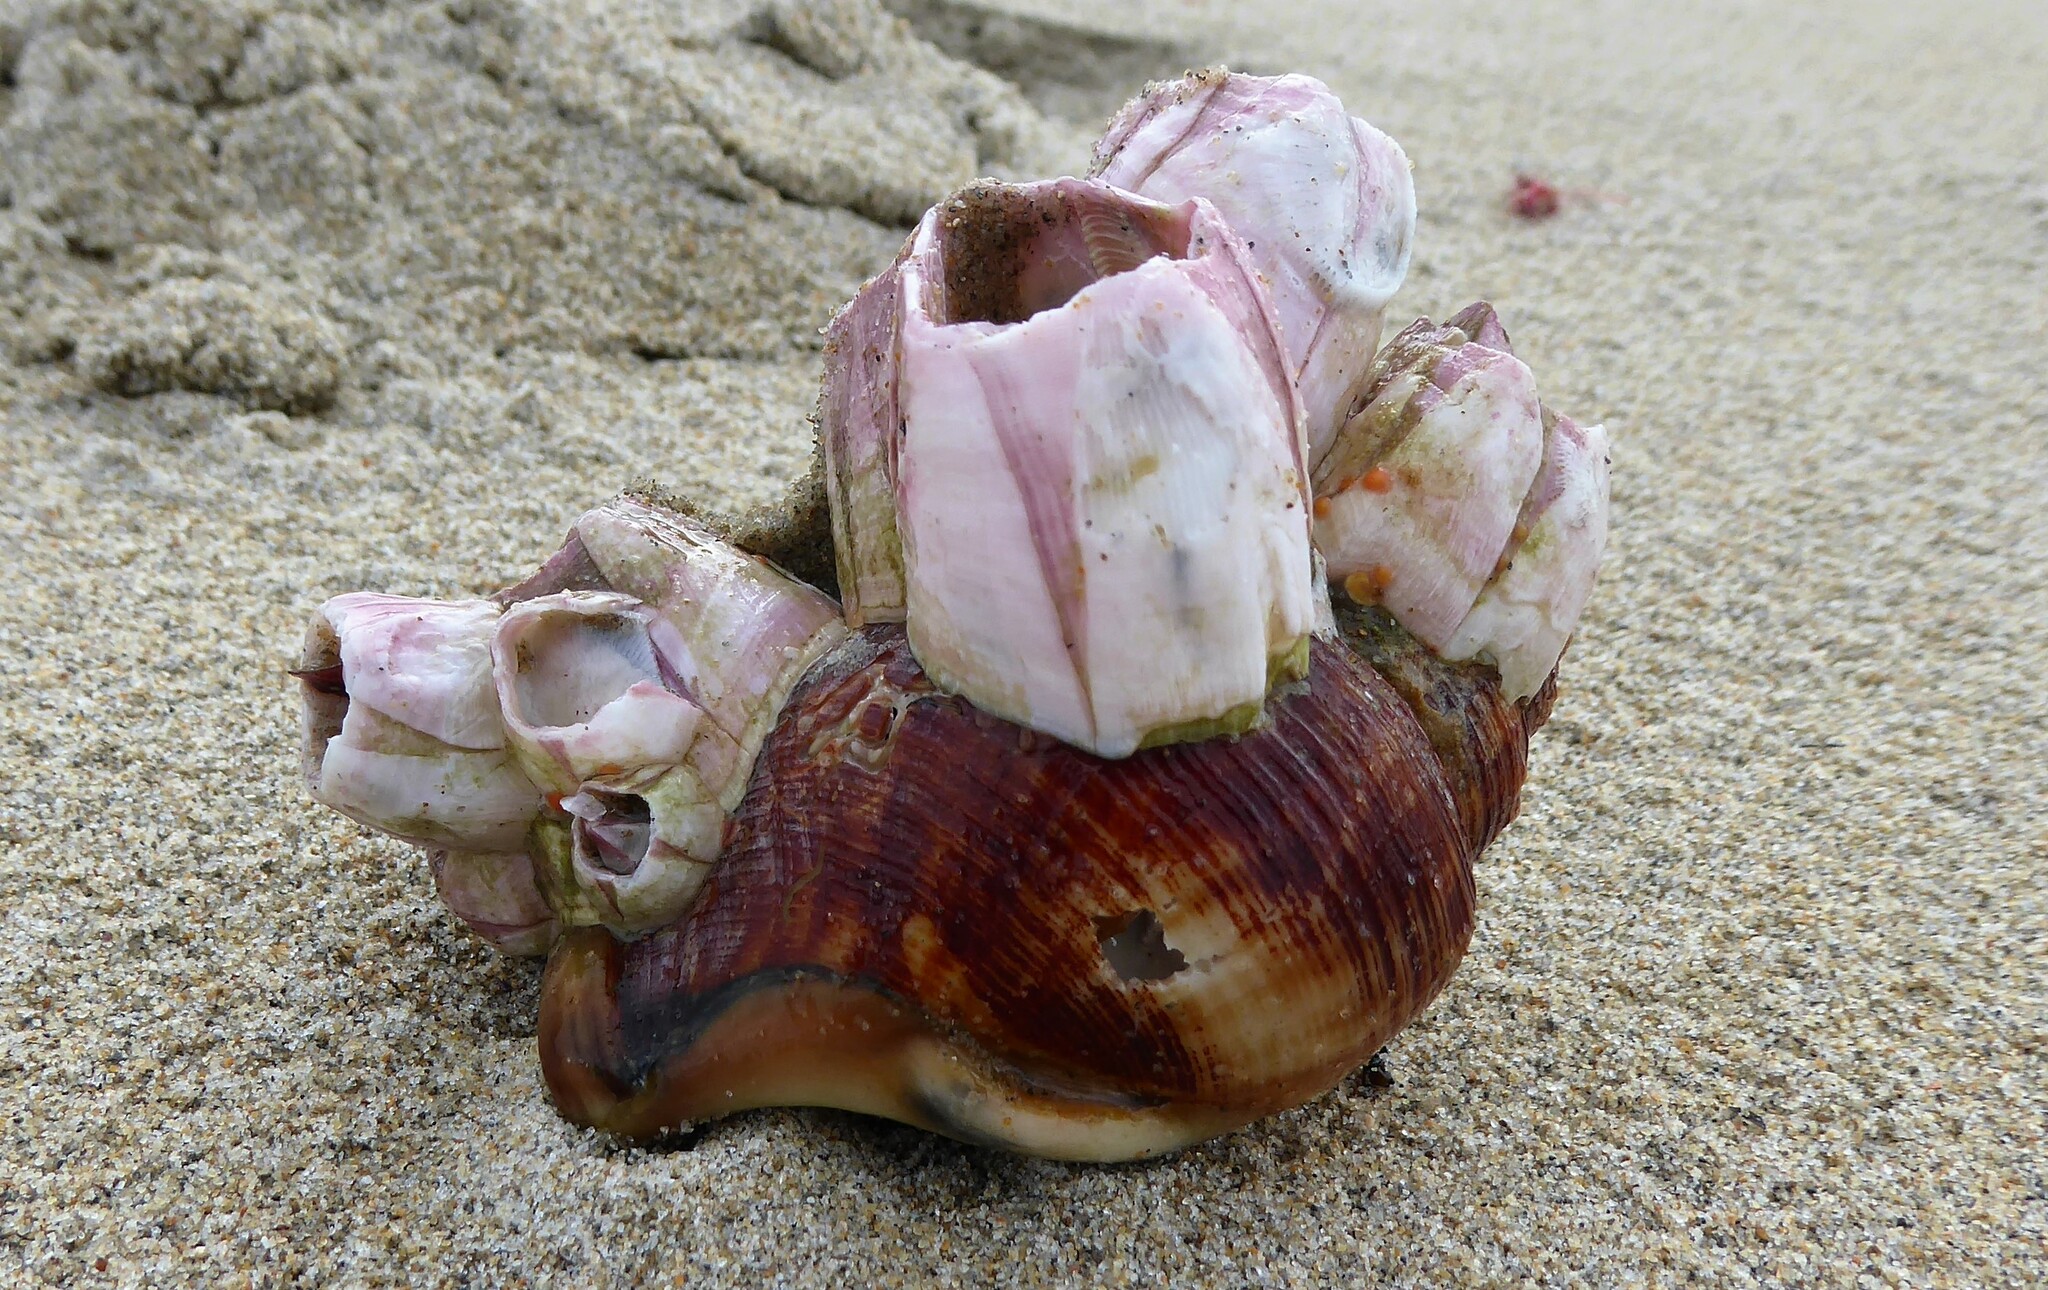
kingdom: Animalia
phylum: Arthropoda
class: Maxillopoda
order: Sessilia
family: Balanidae
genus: Notomegabalanus
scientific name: Notomegabalanus decorus
